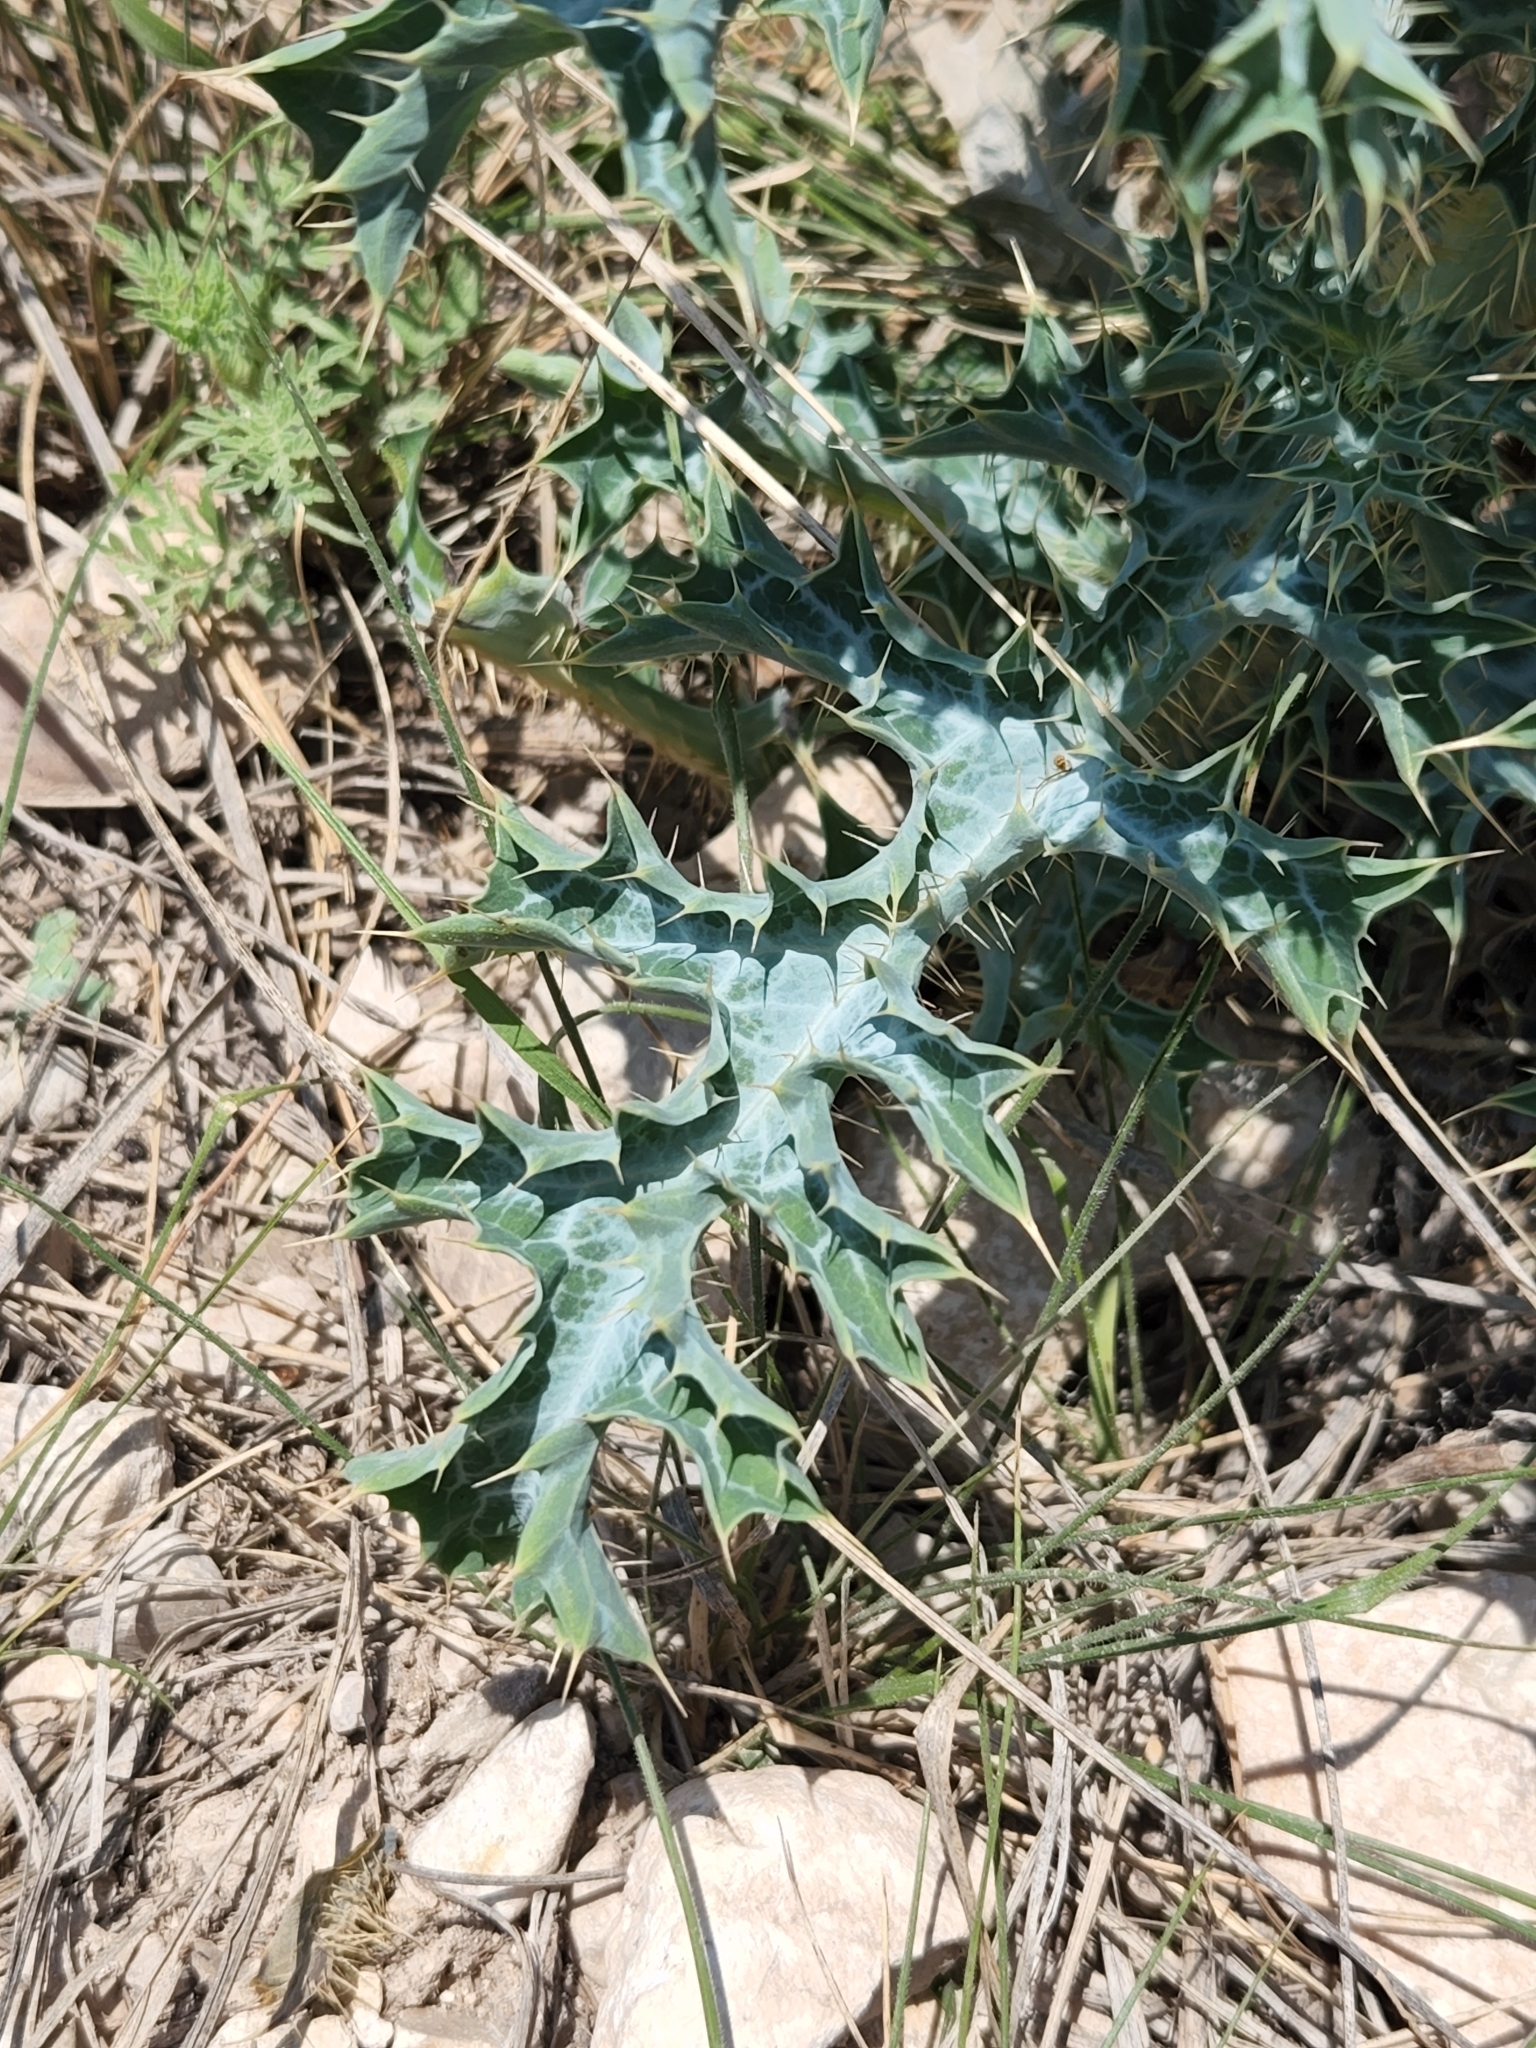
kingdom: Plantae
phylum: Tracheophyta
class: Magnoliopsida
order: Ranunculales
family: Papaveraceae
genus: Argemone
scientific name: Argemone albiflora
